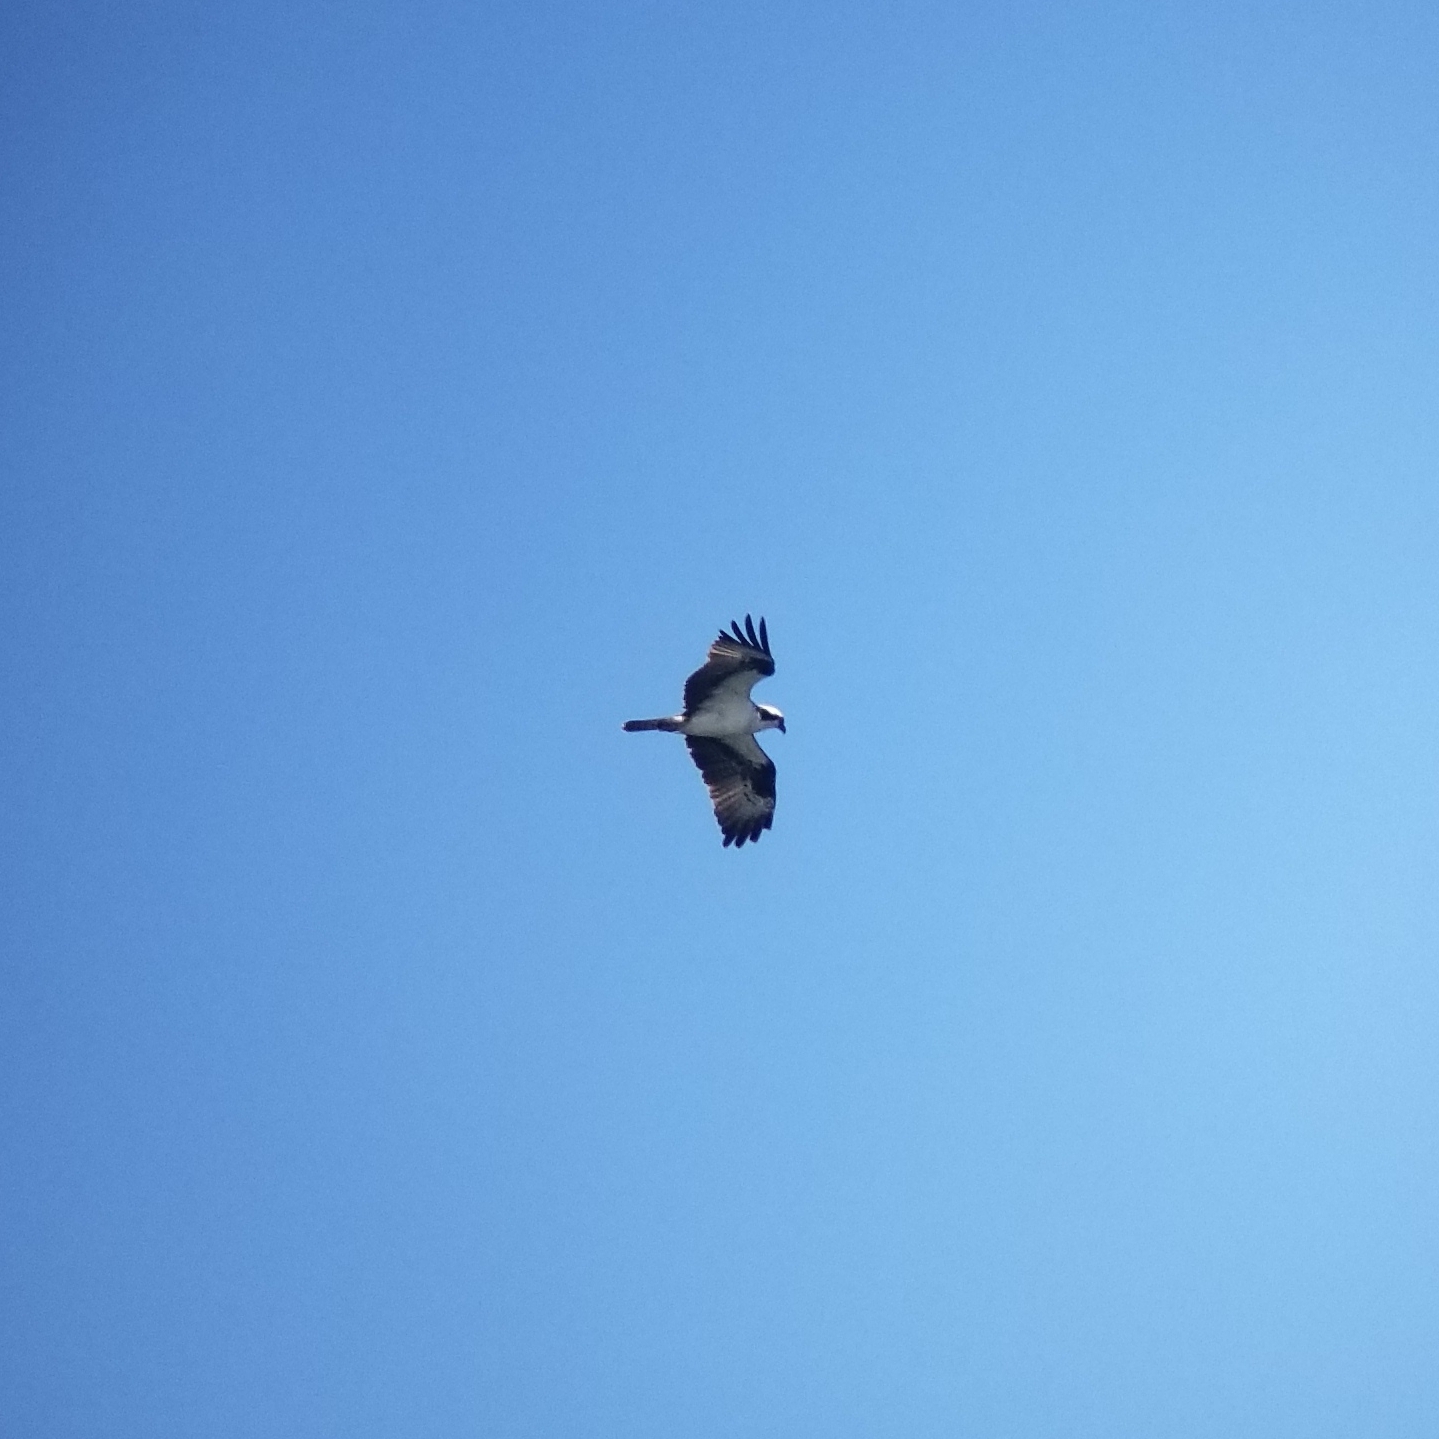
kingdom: Animalia
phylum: Chordata
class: Aves
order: Accipitriformes
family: Pandionidae
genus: Pandion
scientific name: Pandion haliaetus
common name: Osprey
